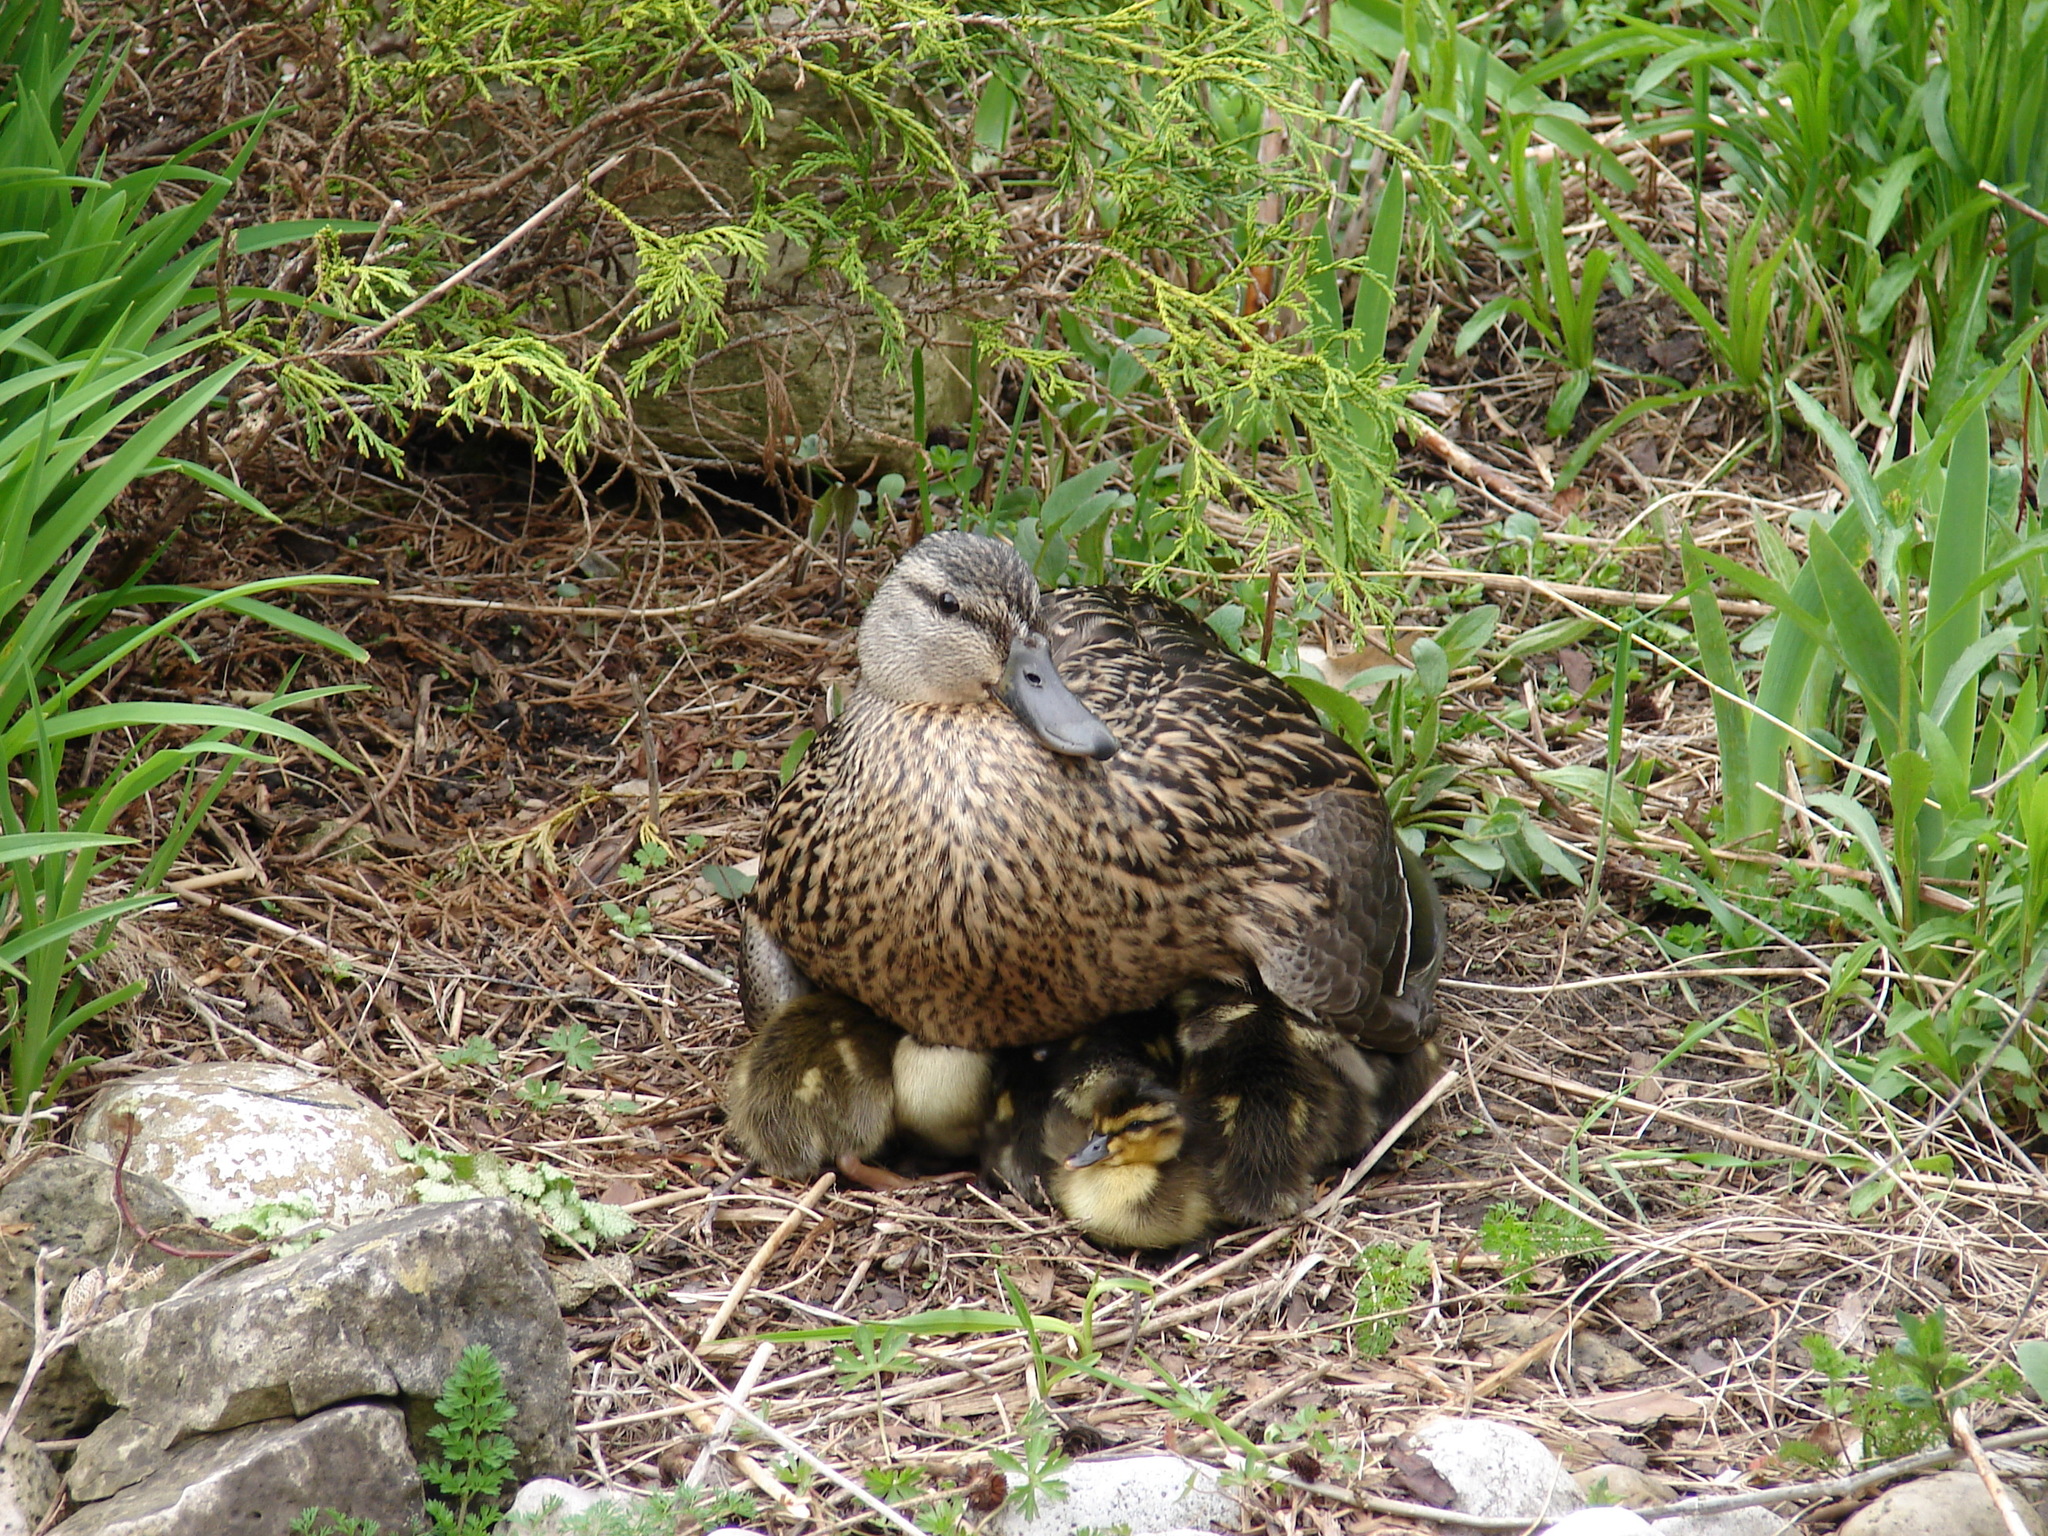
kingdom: Animalia
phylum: Chordata
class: Aves
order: Anseriformes
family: Anatidae
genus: Anas
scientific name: Anas platyrhynchos
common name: Mallard
